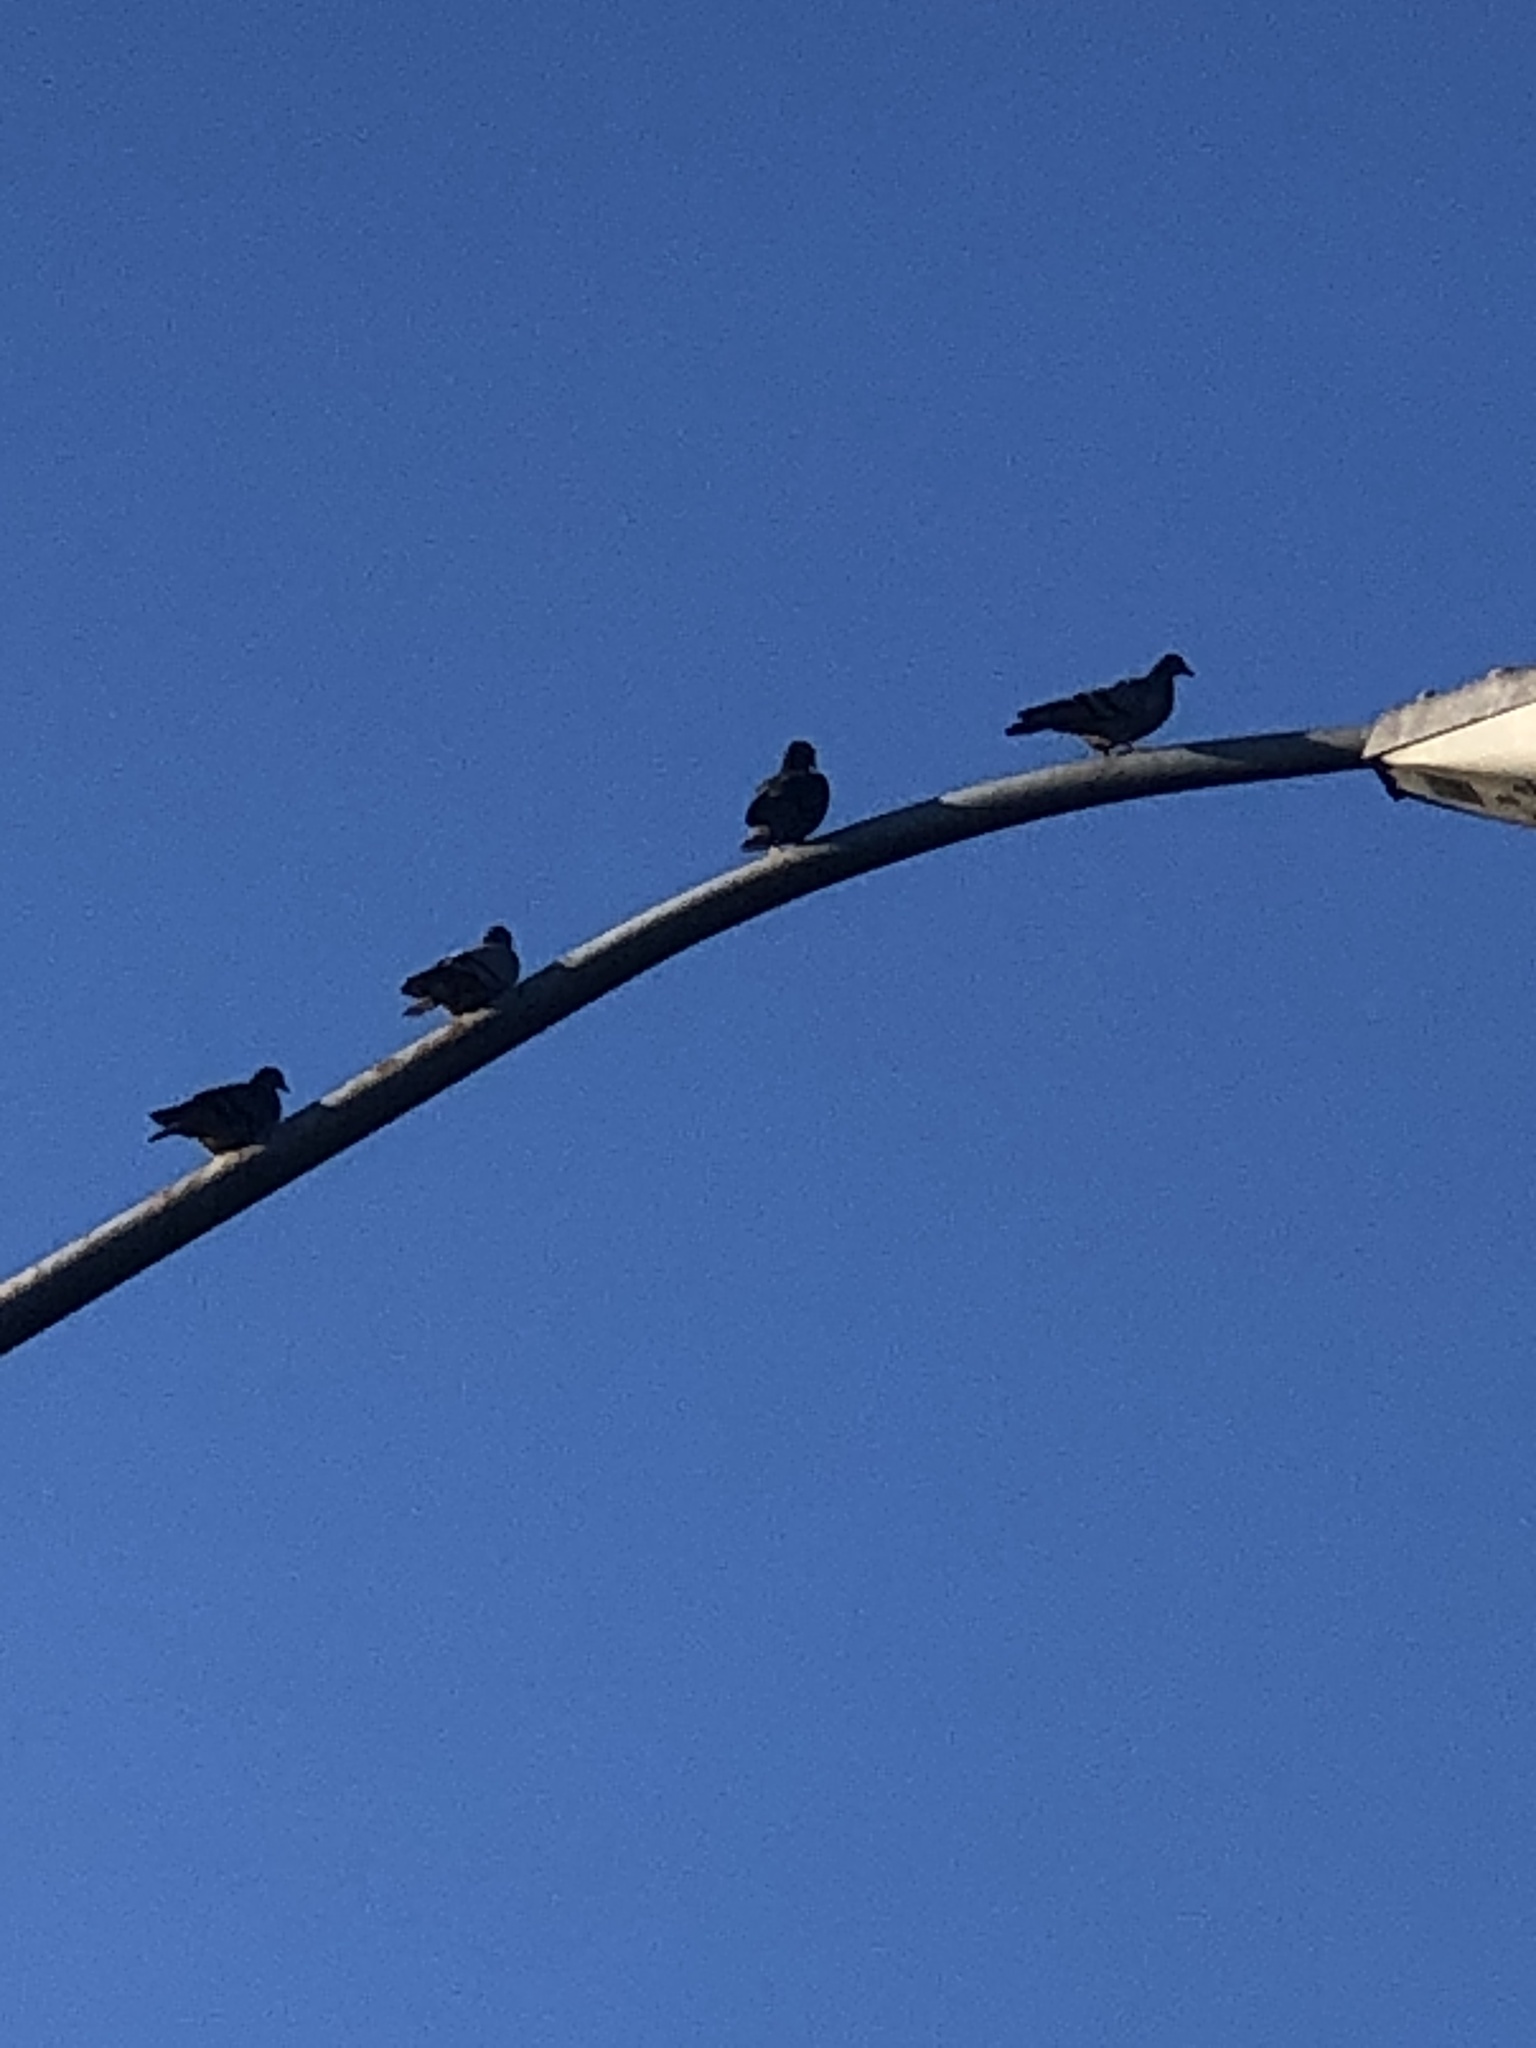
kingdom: Animalia
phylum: Chordata
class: Aves
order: Columbiformes
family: Columbidae
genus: Columba
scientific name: Columba livia
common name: Rock pigeon
